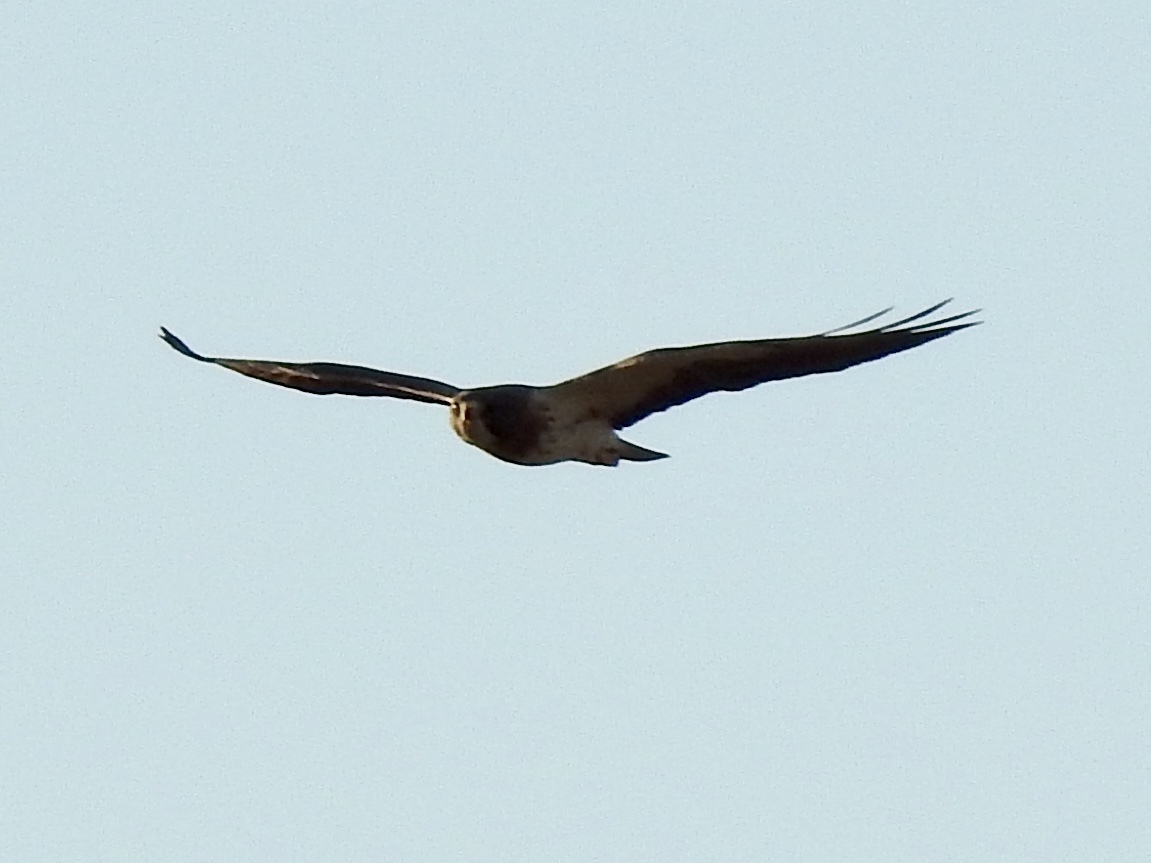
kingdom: Animalia
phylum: Chordata
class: Aves
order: Accipitriformes
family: Accipitridae
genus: Buteo
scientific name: Buteo swainsoni
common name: Swainson's hawk
